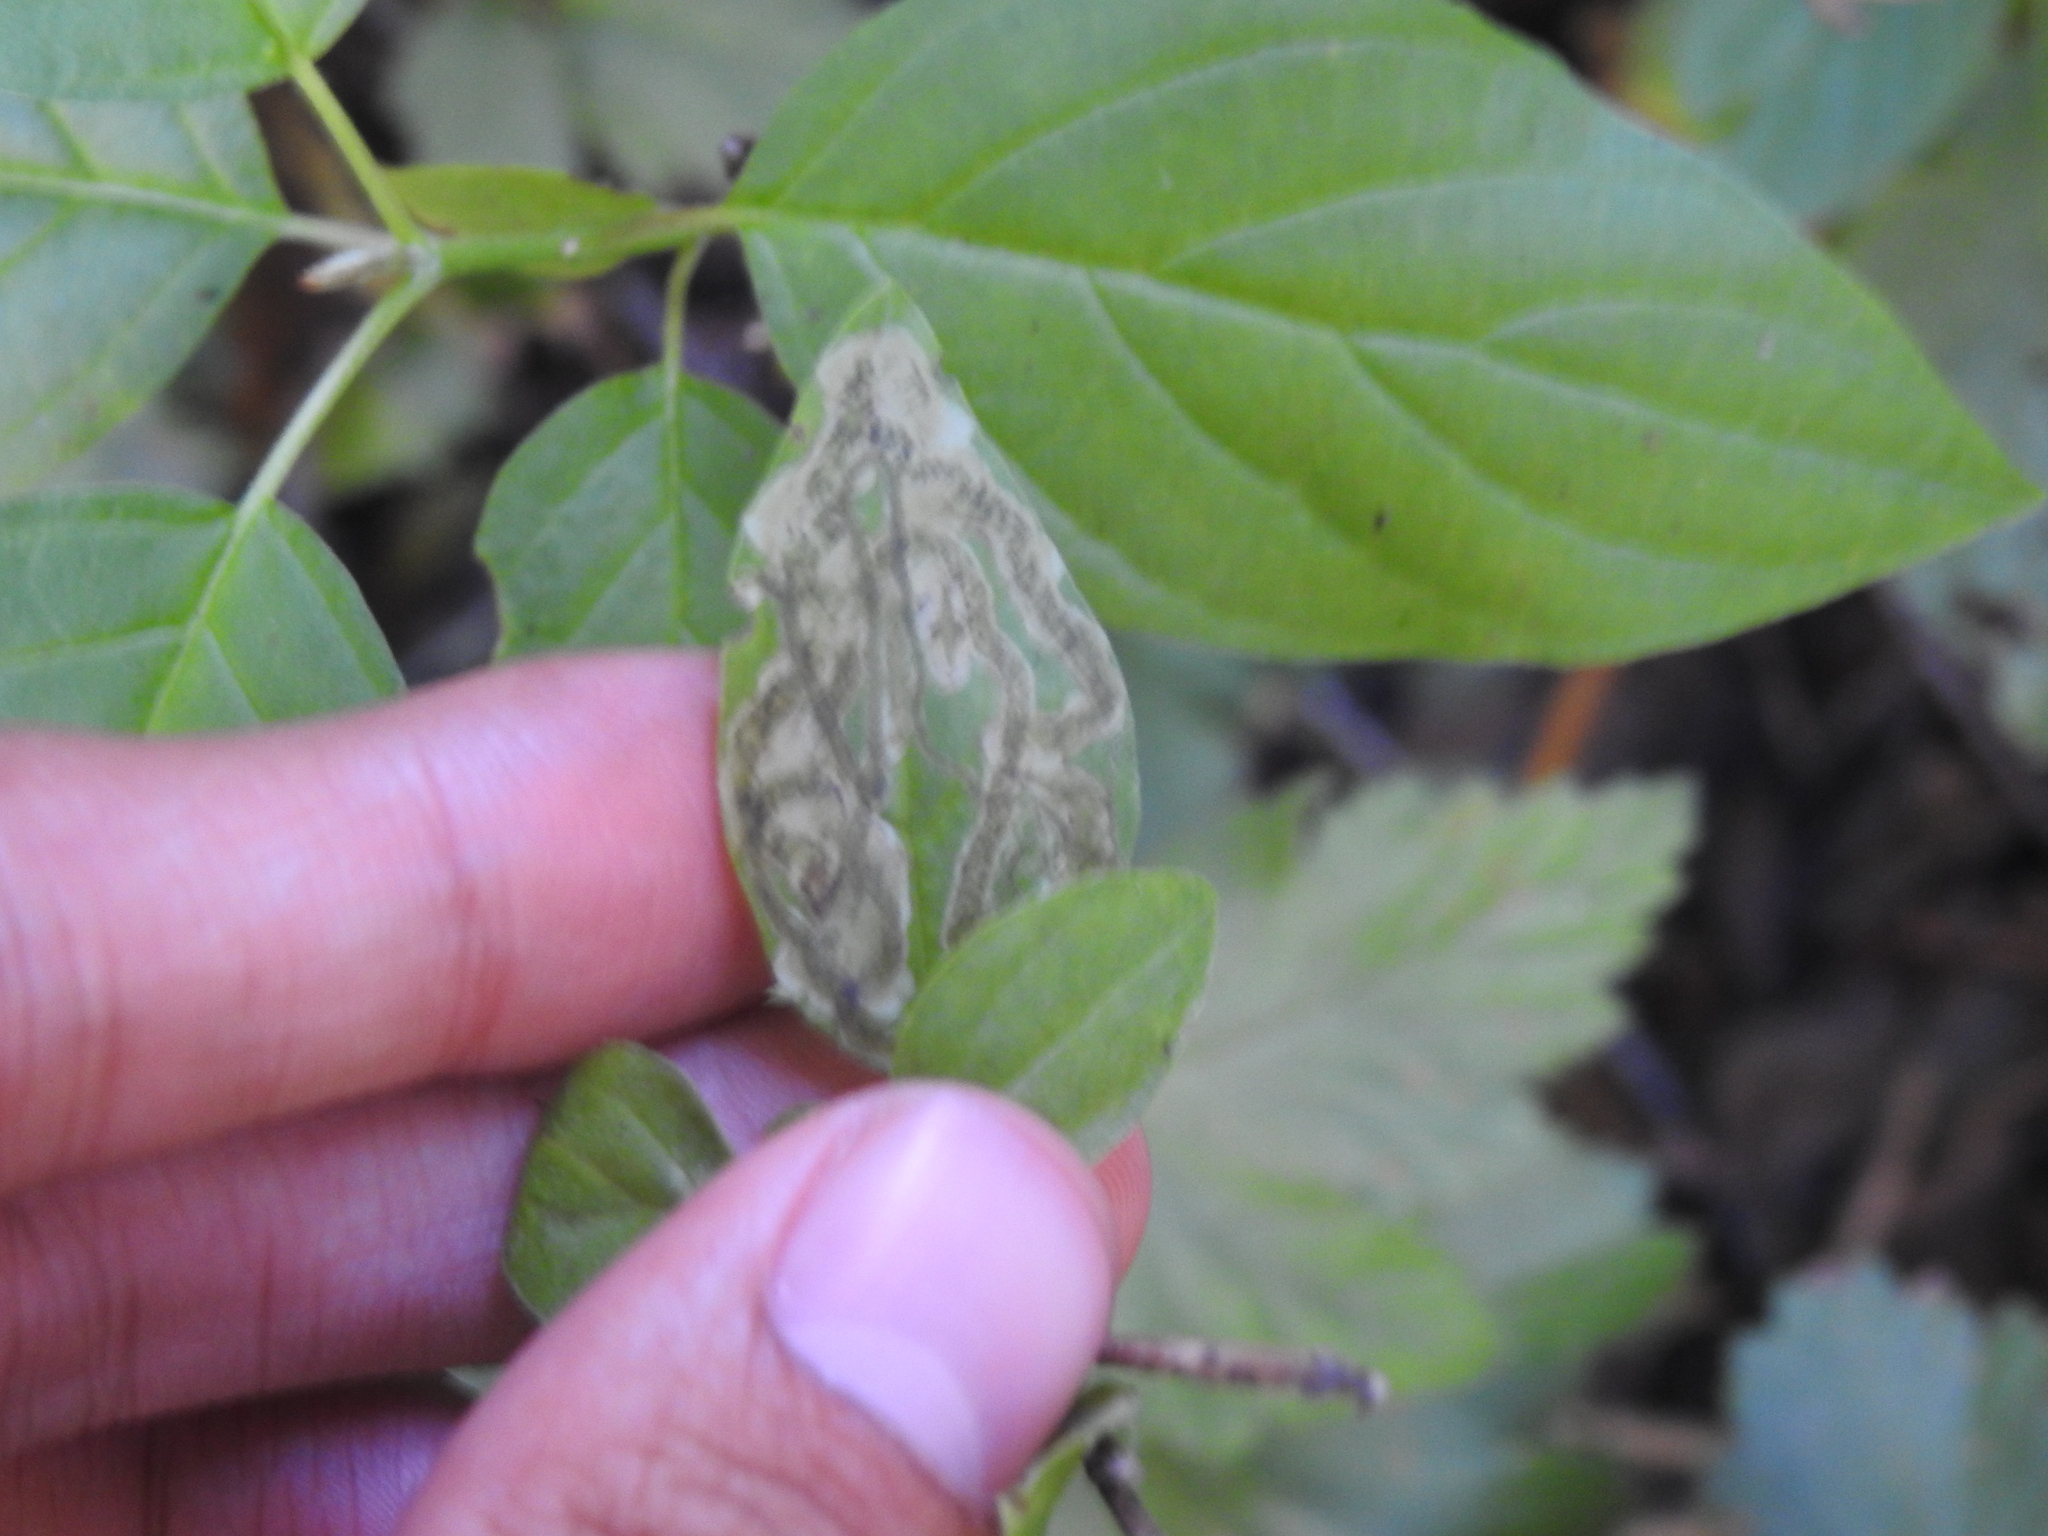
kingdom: Animalia
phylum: Arthropoda
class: Insecta
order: Diptera
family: Agromyzidae
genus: Phytomyza
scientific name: Phytomyza agromyzina
